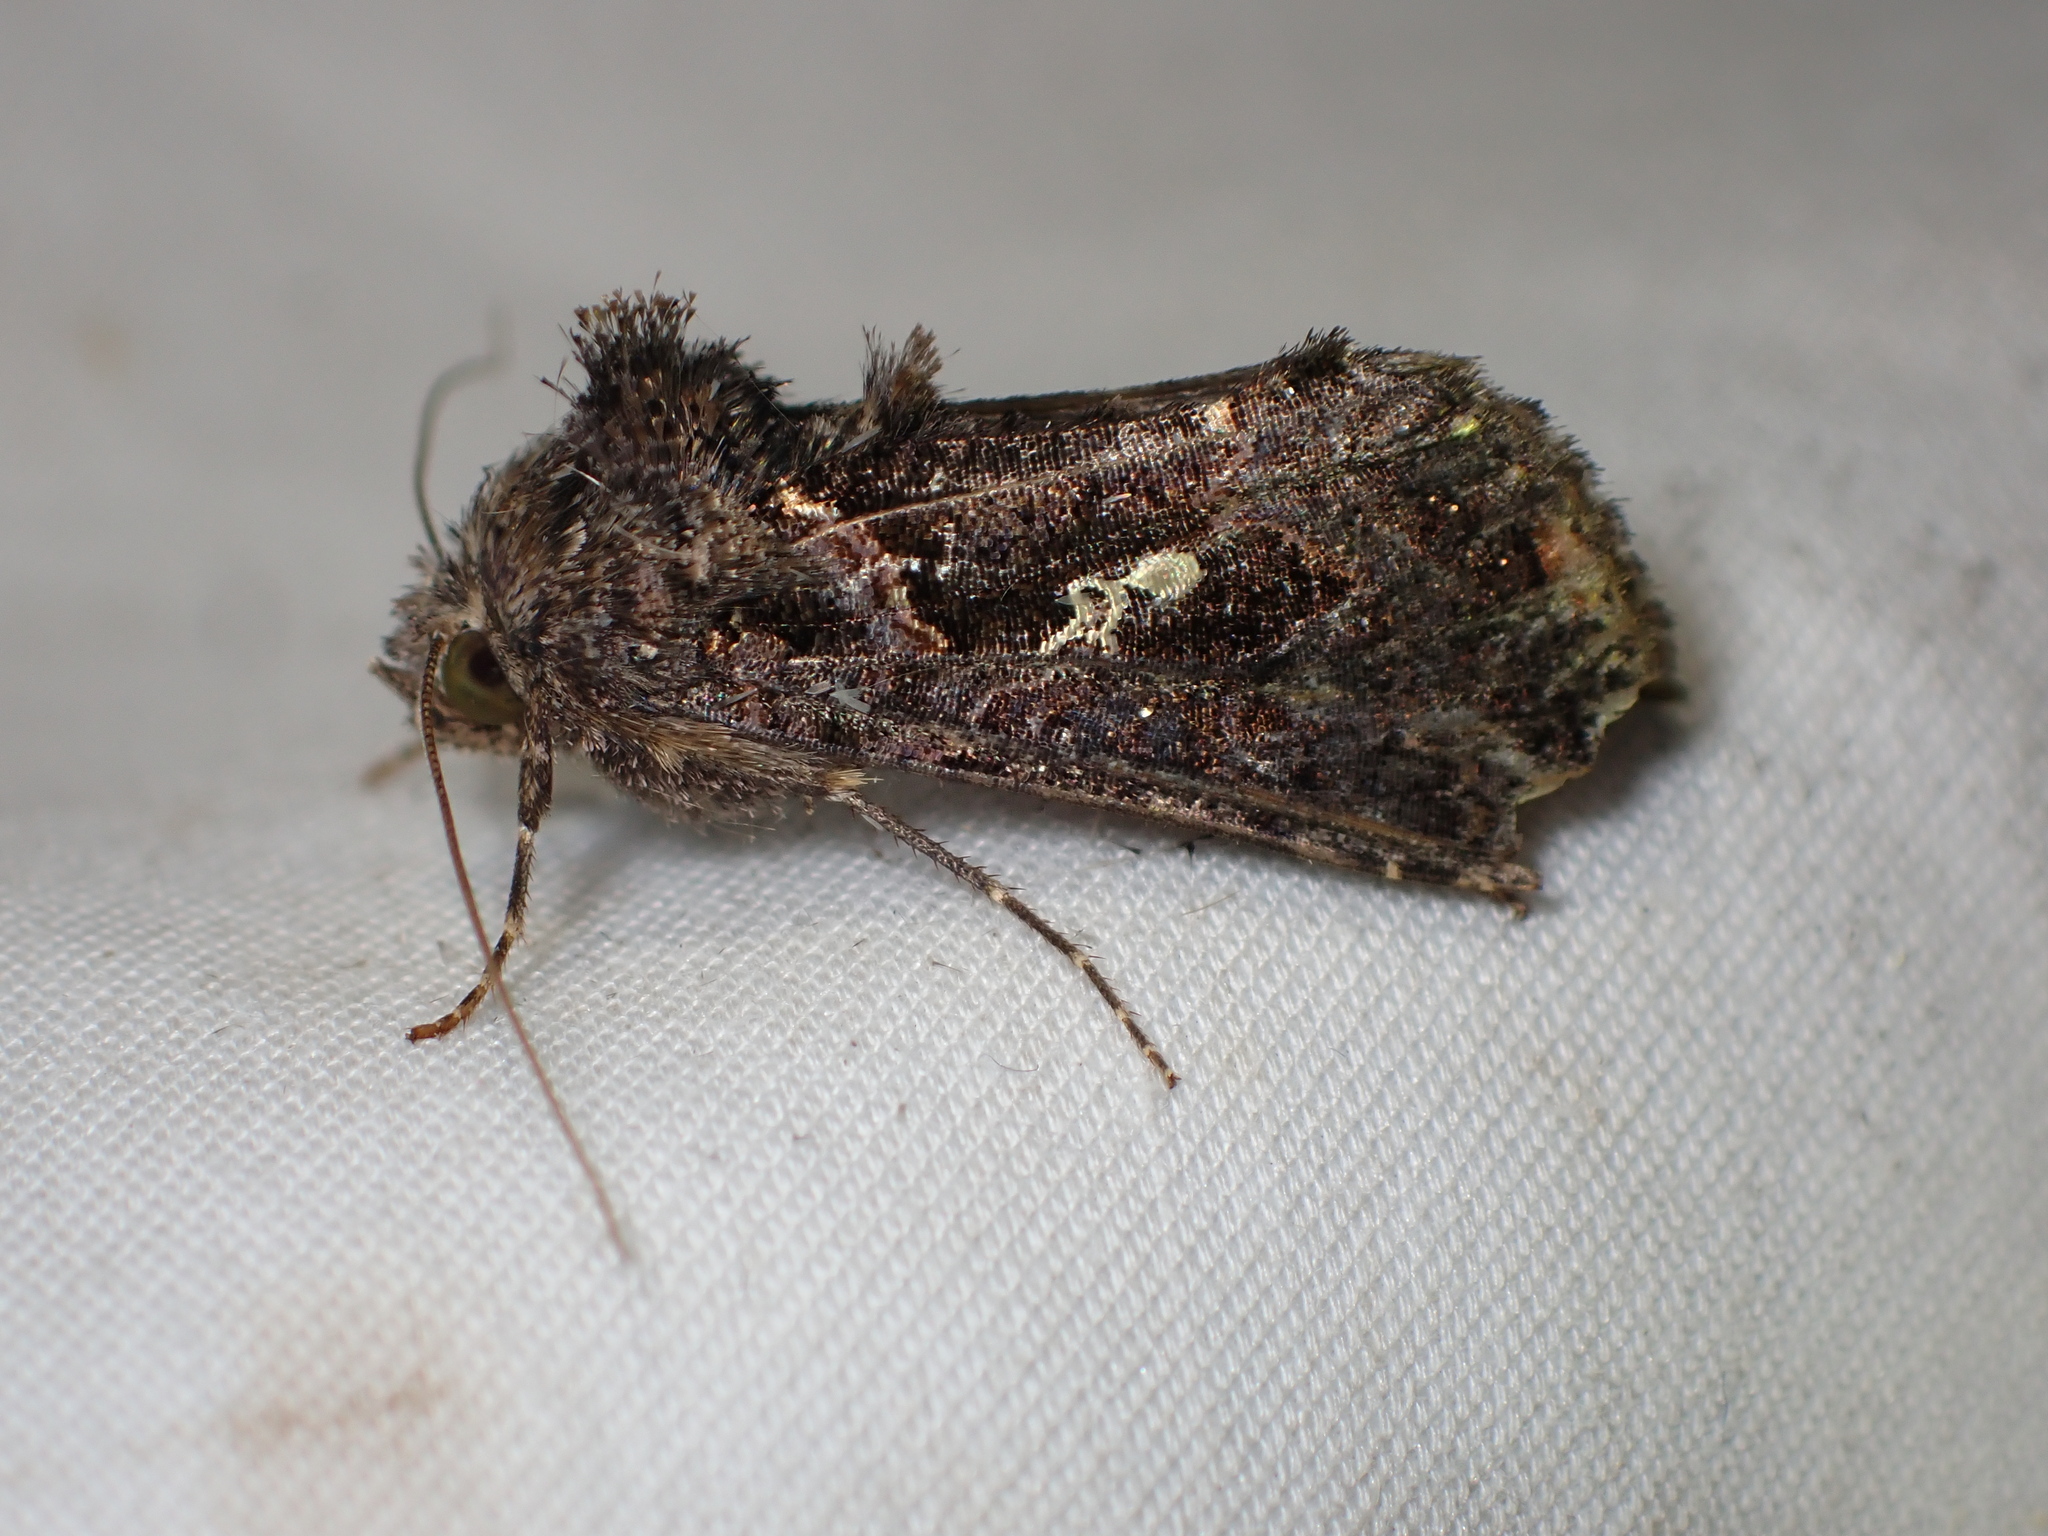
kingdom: Animalia
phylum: Arthropoda
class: Insecta
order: Lepidoptera
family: Noctuidae
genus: Ctenoplusia
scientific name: Ctenoplusia limbirena
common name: Scar bank gem
